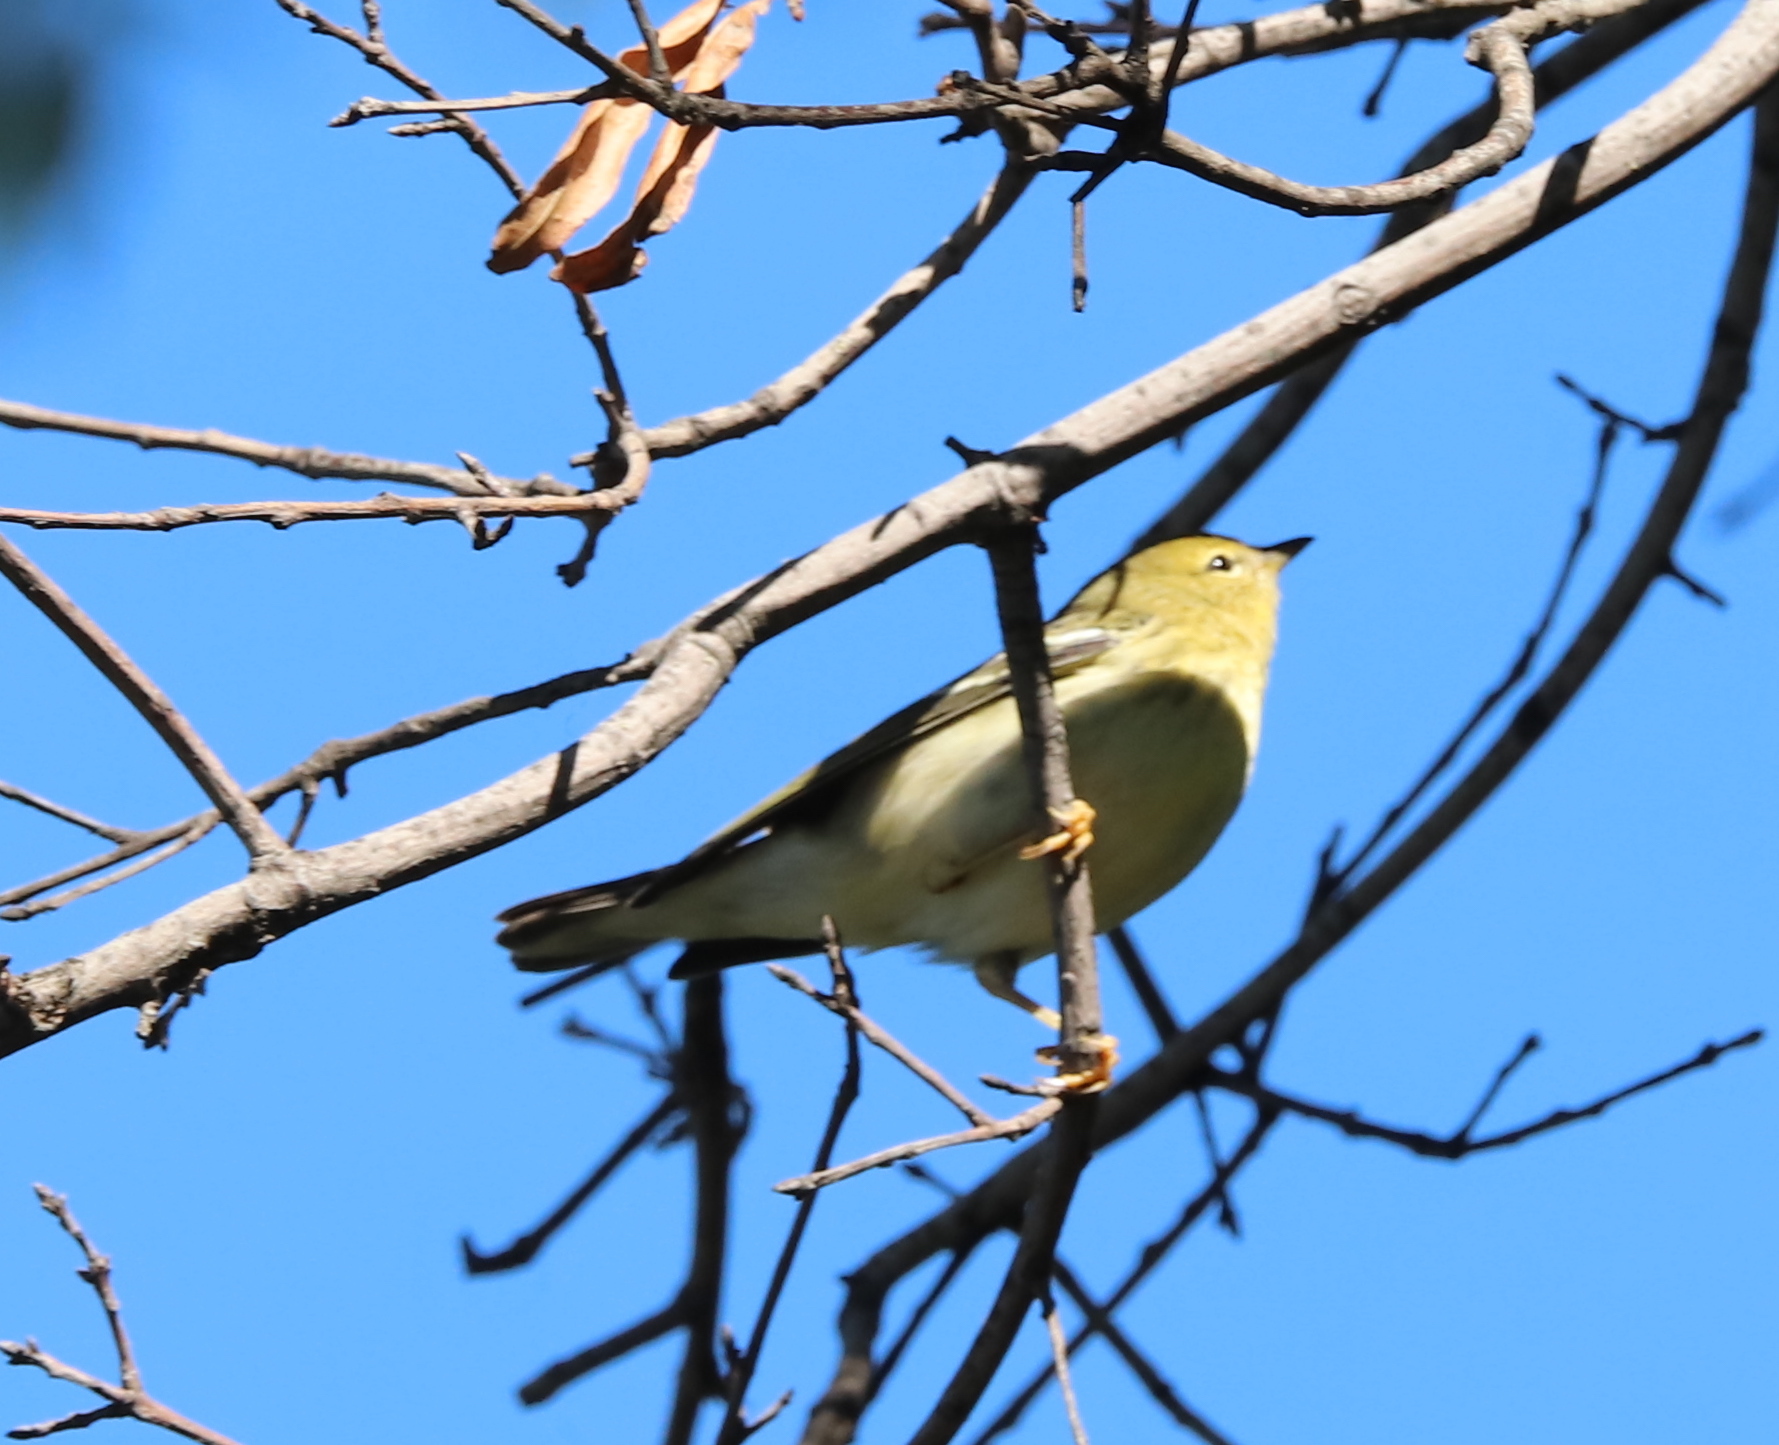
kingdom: Animalia
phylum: Chordata
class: Aves
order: Passeriformes
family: Parulidae
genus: Setophaga
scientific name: Setophaga striata
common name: Blackpoll warbler
